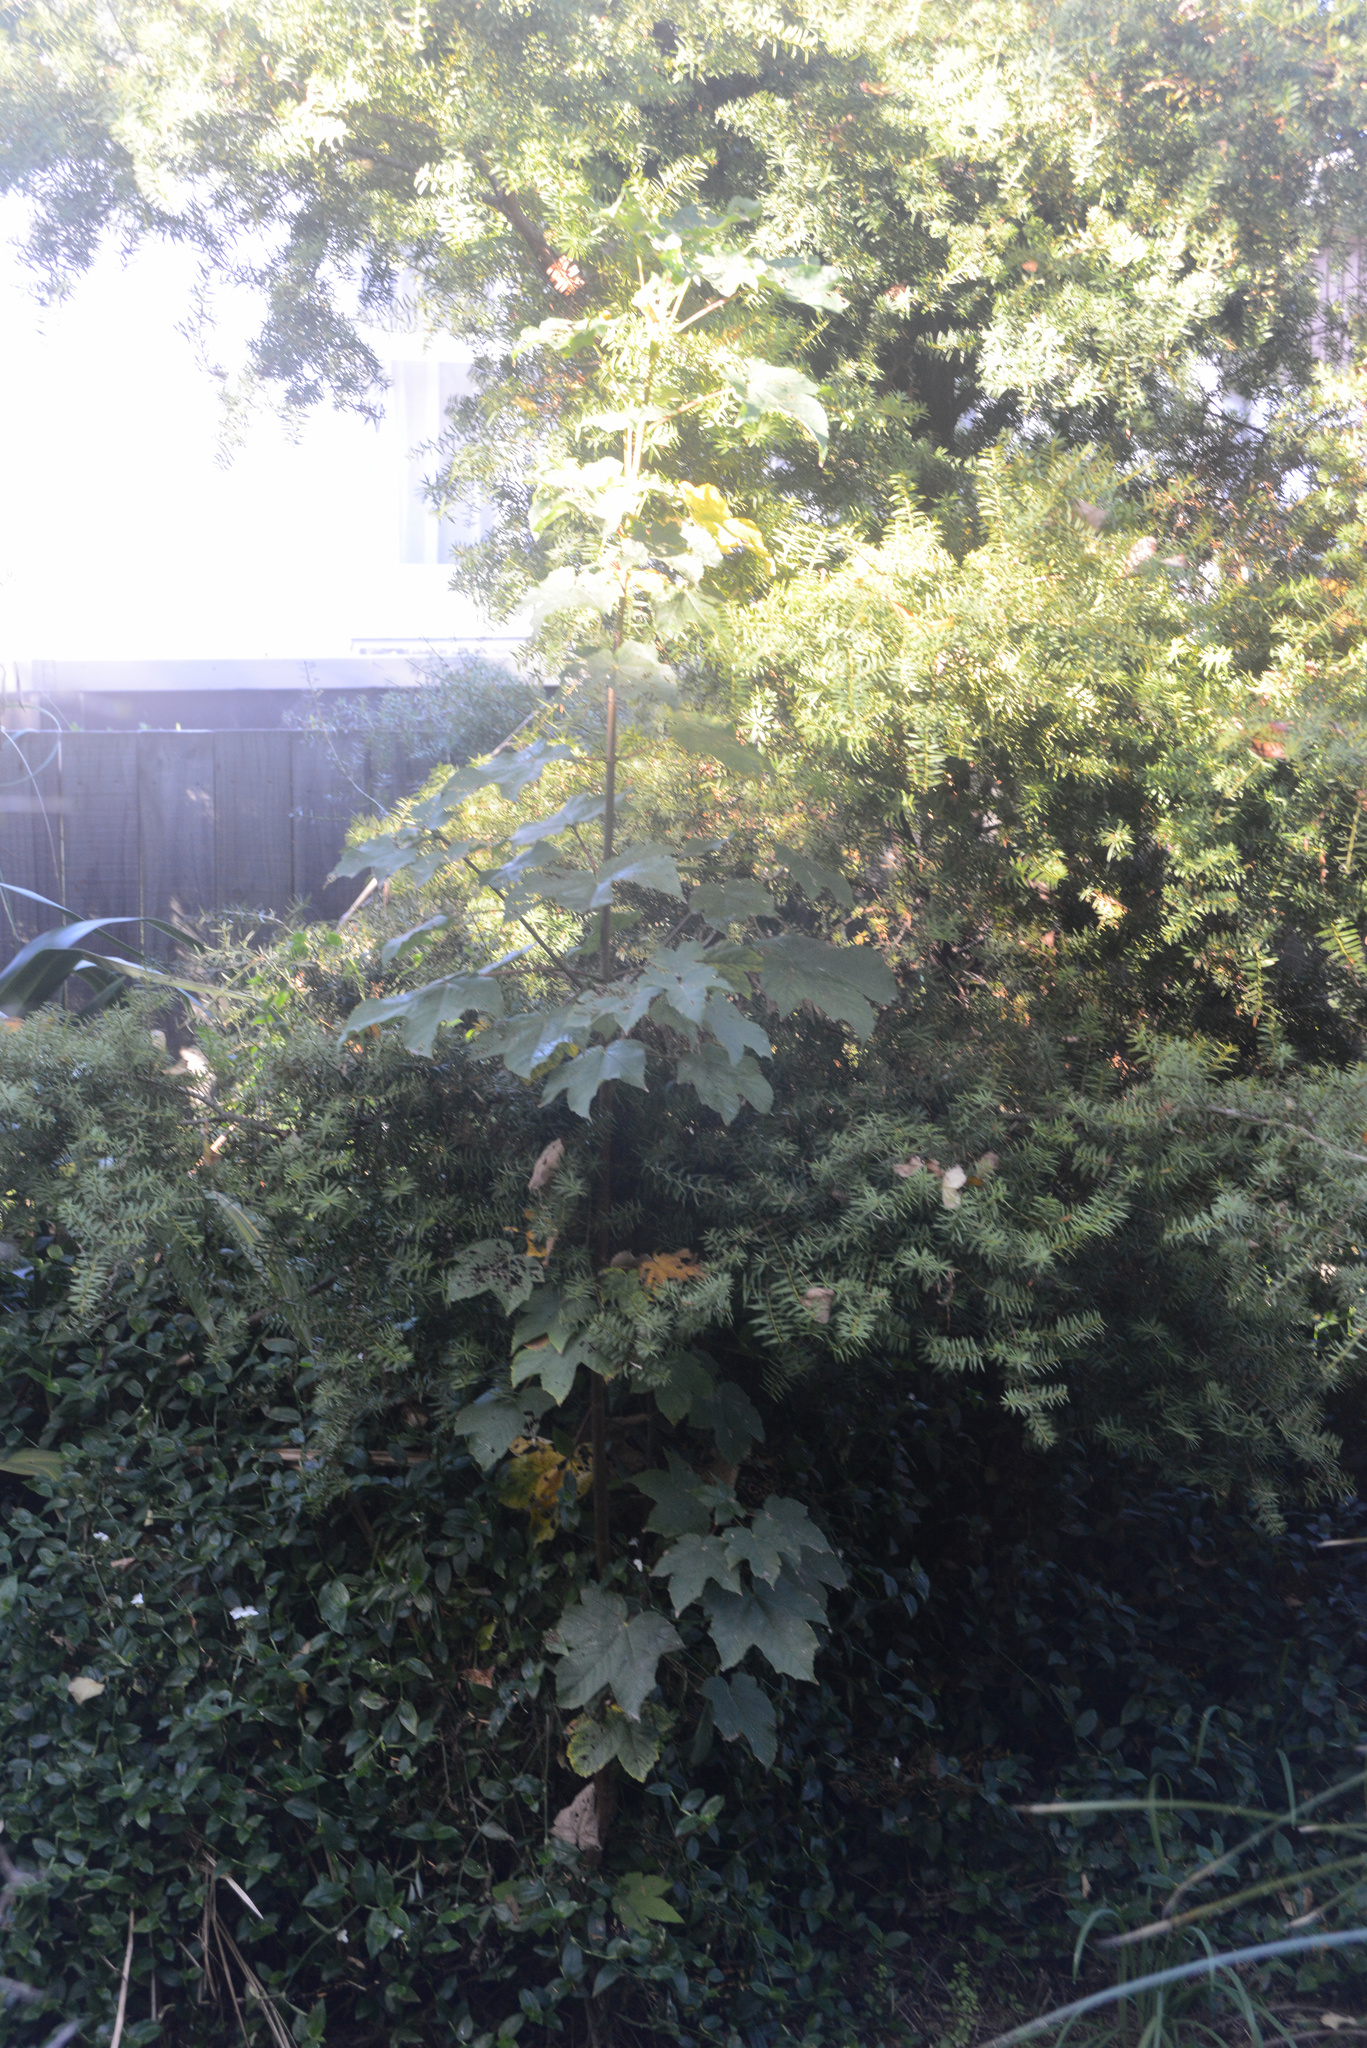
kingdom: Plantae
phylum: Tracheophyta
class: Magnoliopsida
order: Sapindales
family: Sapindaceae
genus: Acer
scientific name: Acer pseudoplatanus
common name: Sycamore
